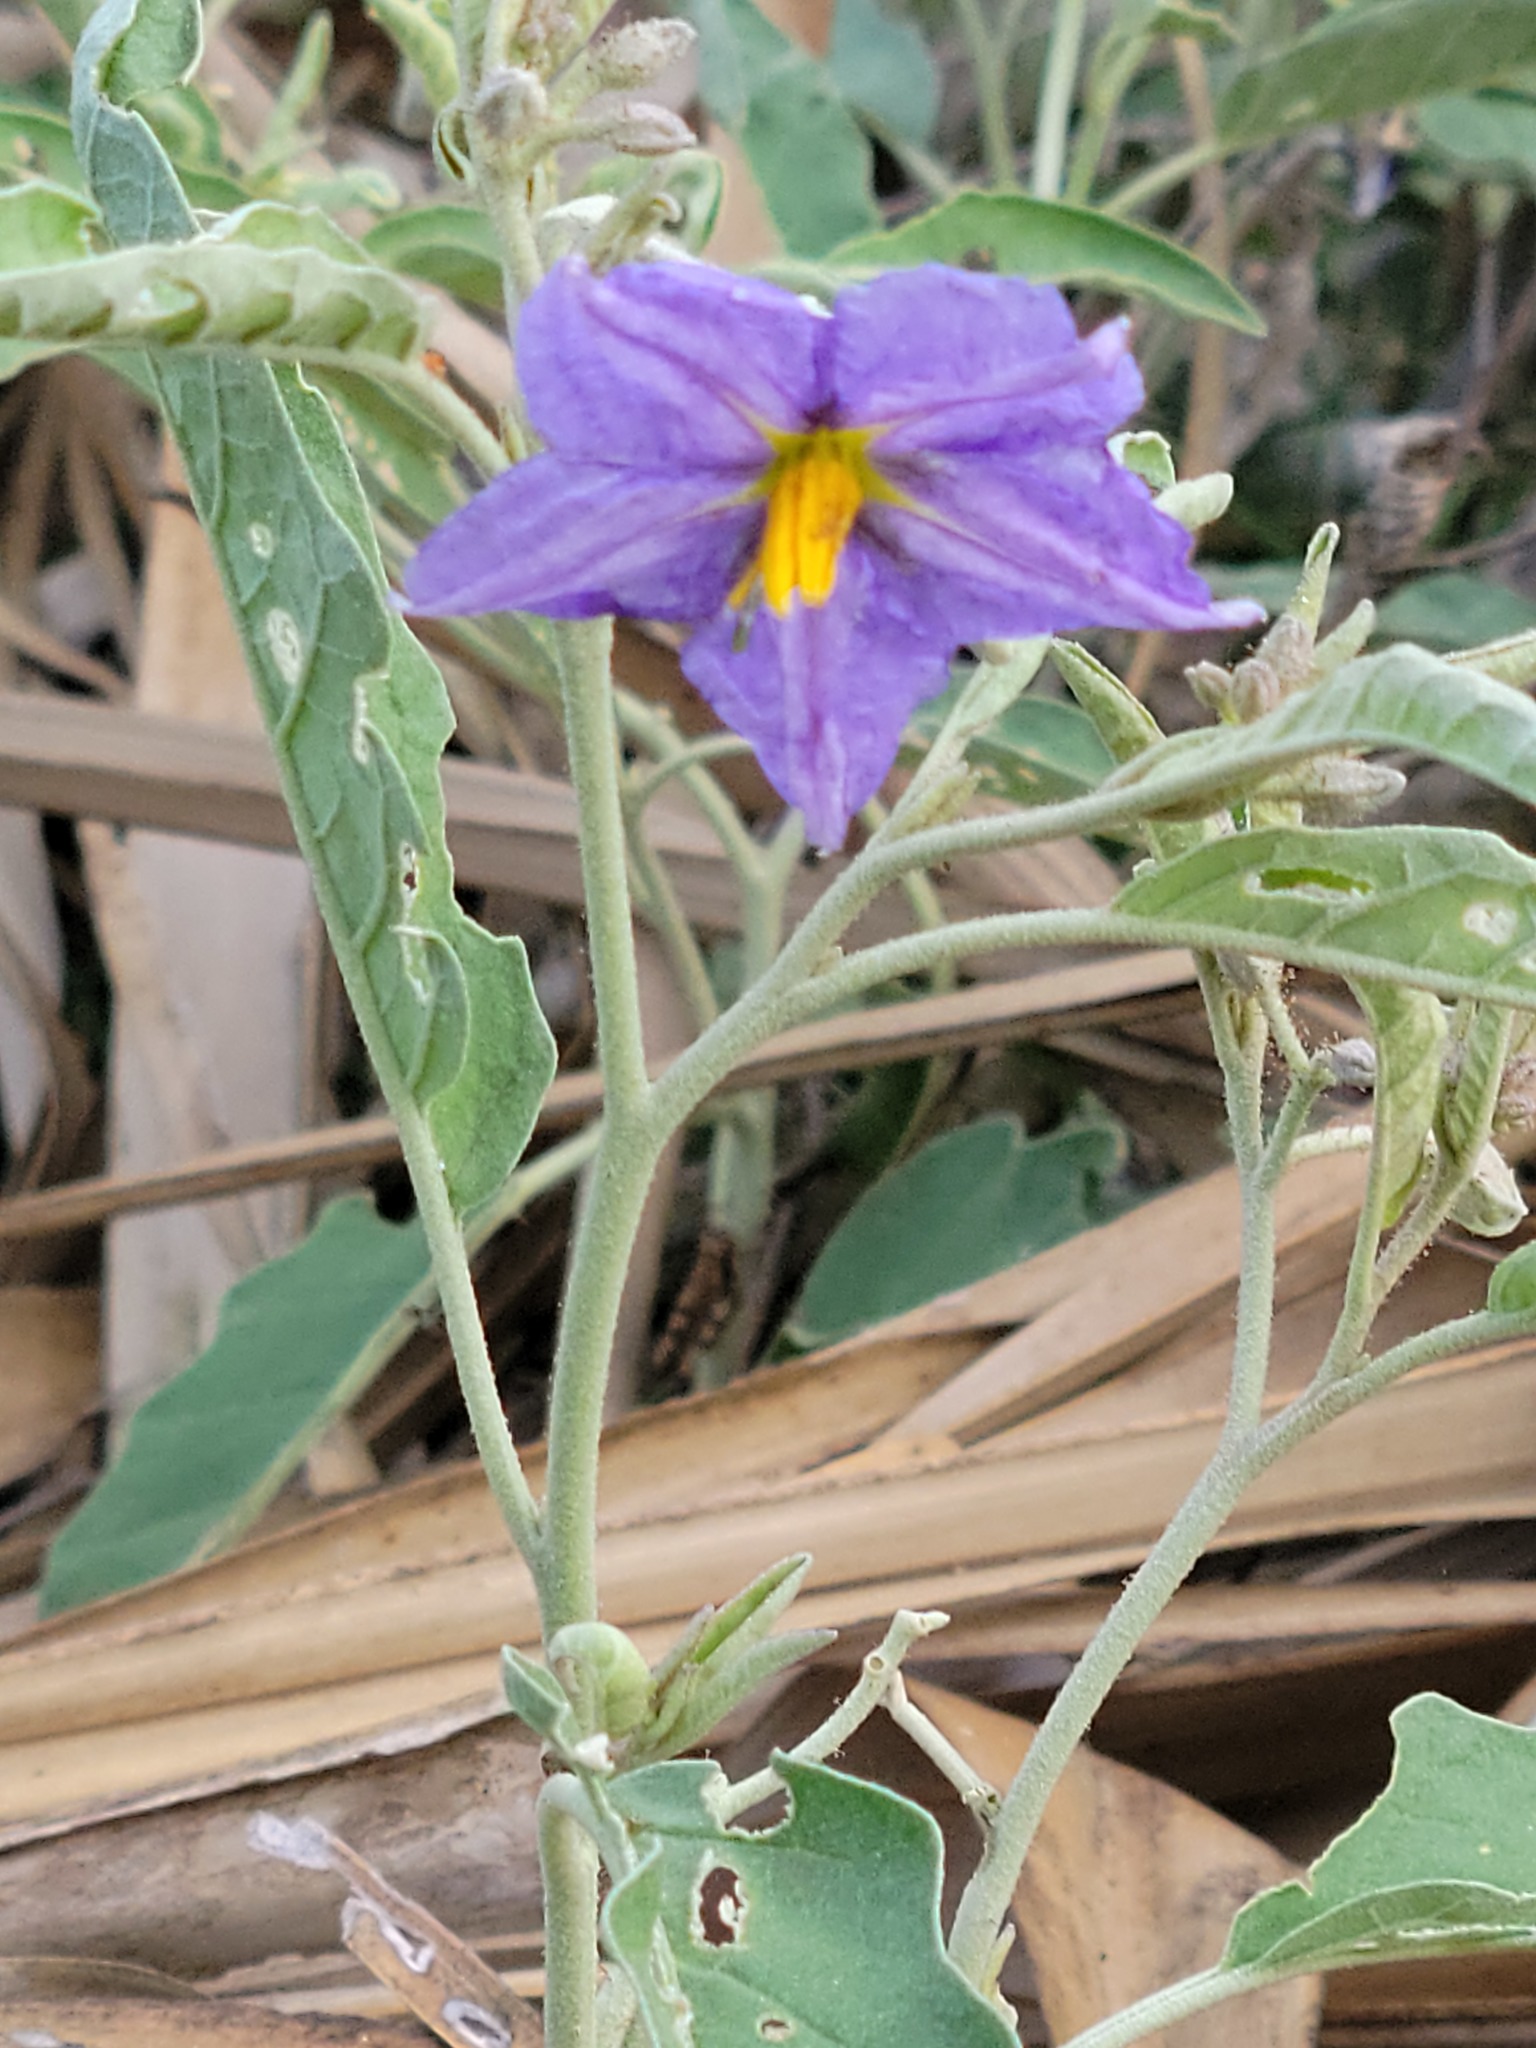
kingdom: Plantae
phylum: Tracheophyta
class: Magnoliopsida
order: Solanales
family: Solanaceae
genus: Solanum
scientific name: Solanum elaeagnifolium
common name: Silverleaf nightshade
